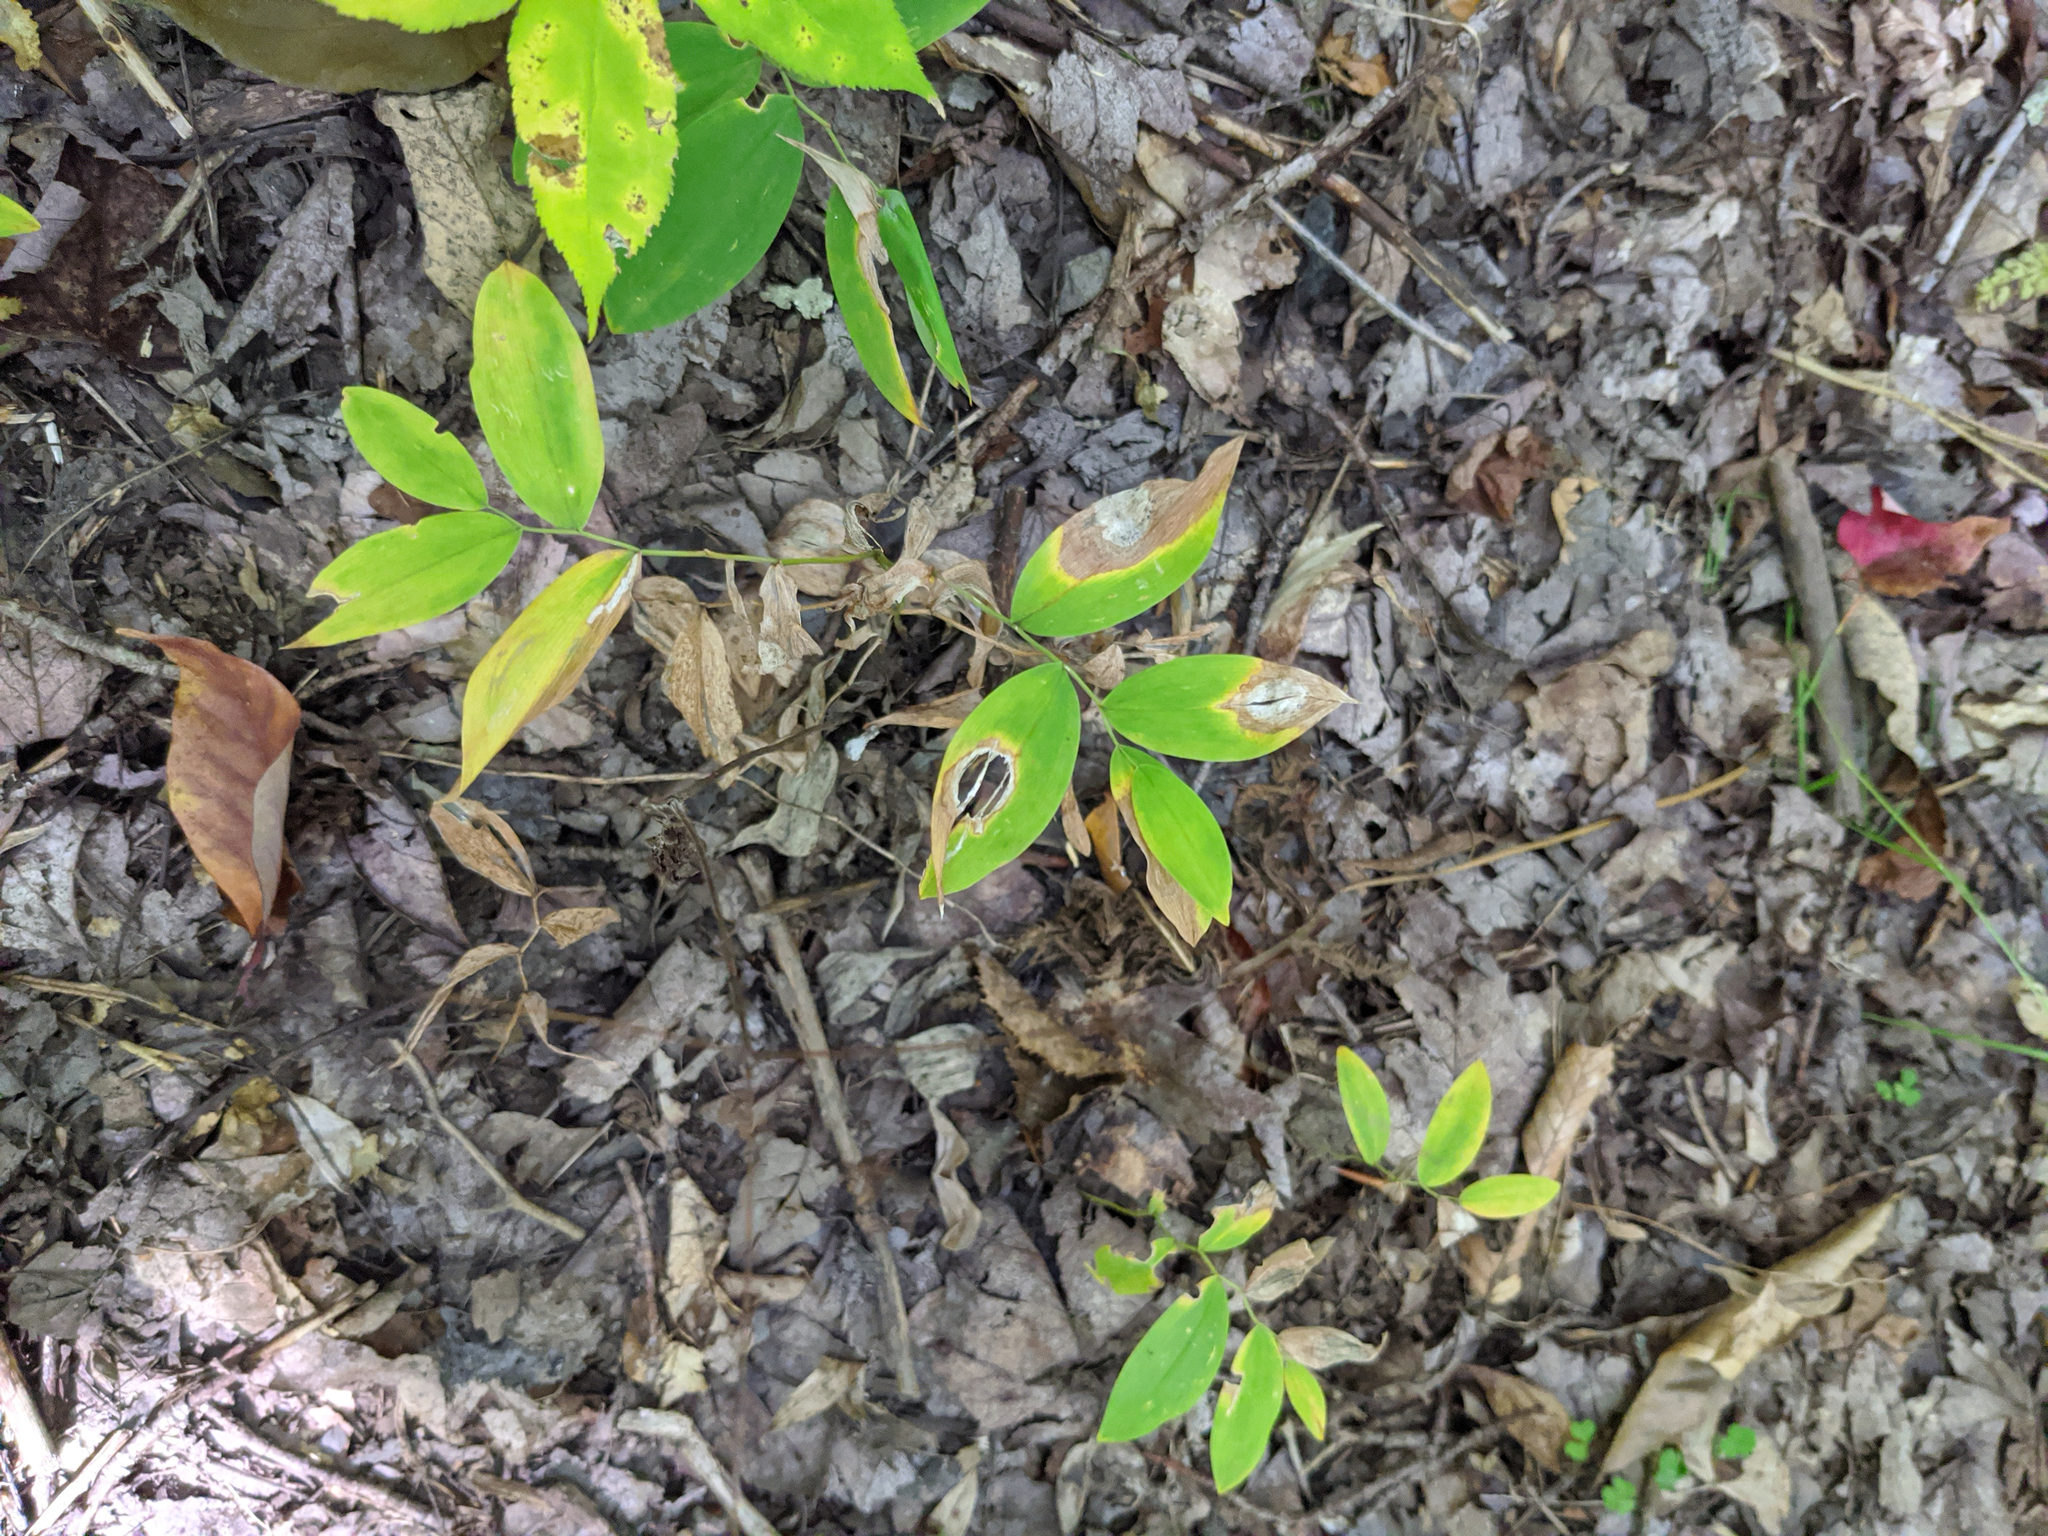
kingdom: Plantae
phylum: Tracheophyta
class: Liliopsida
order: Liliales
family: Colchicaceae
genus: Uvularia
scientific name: Uvularia sessilifolia
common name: Straw-lily
